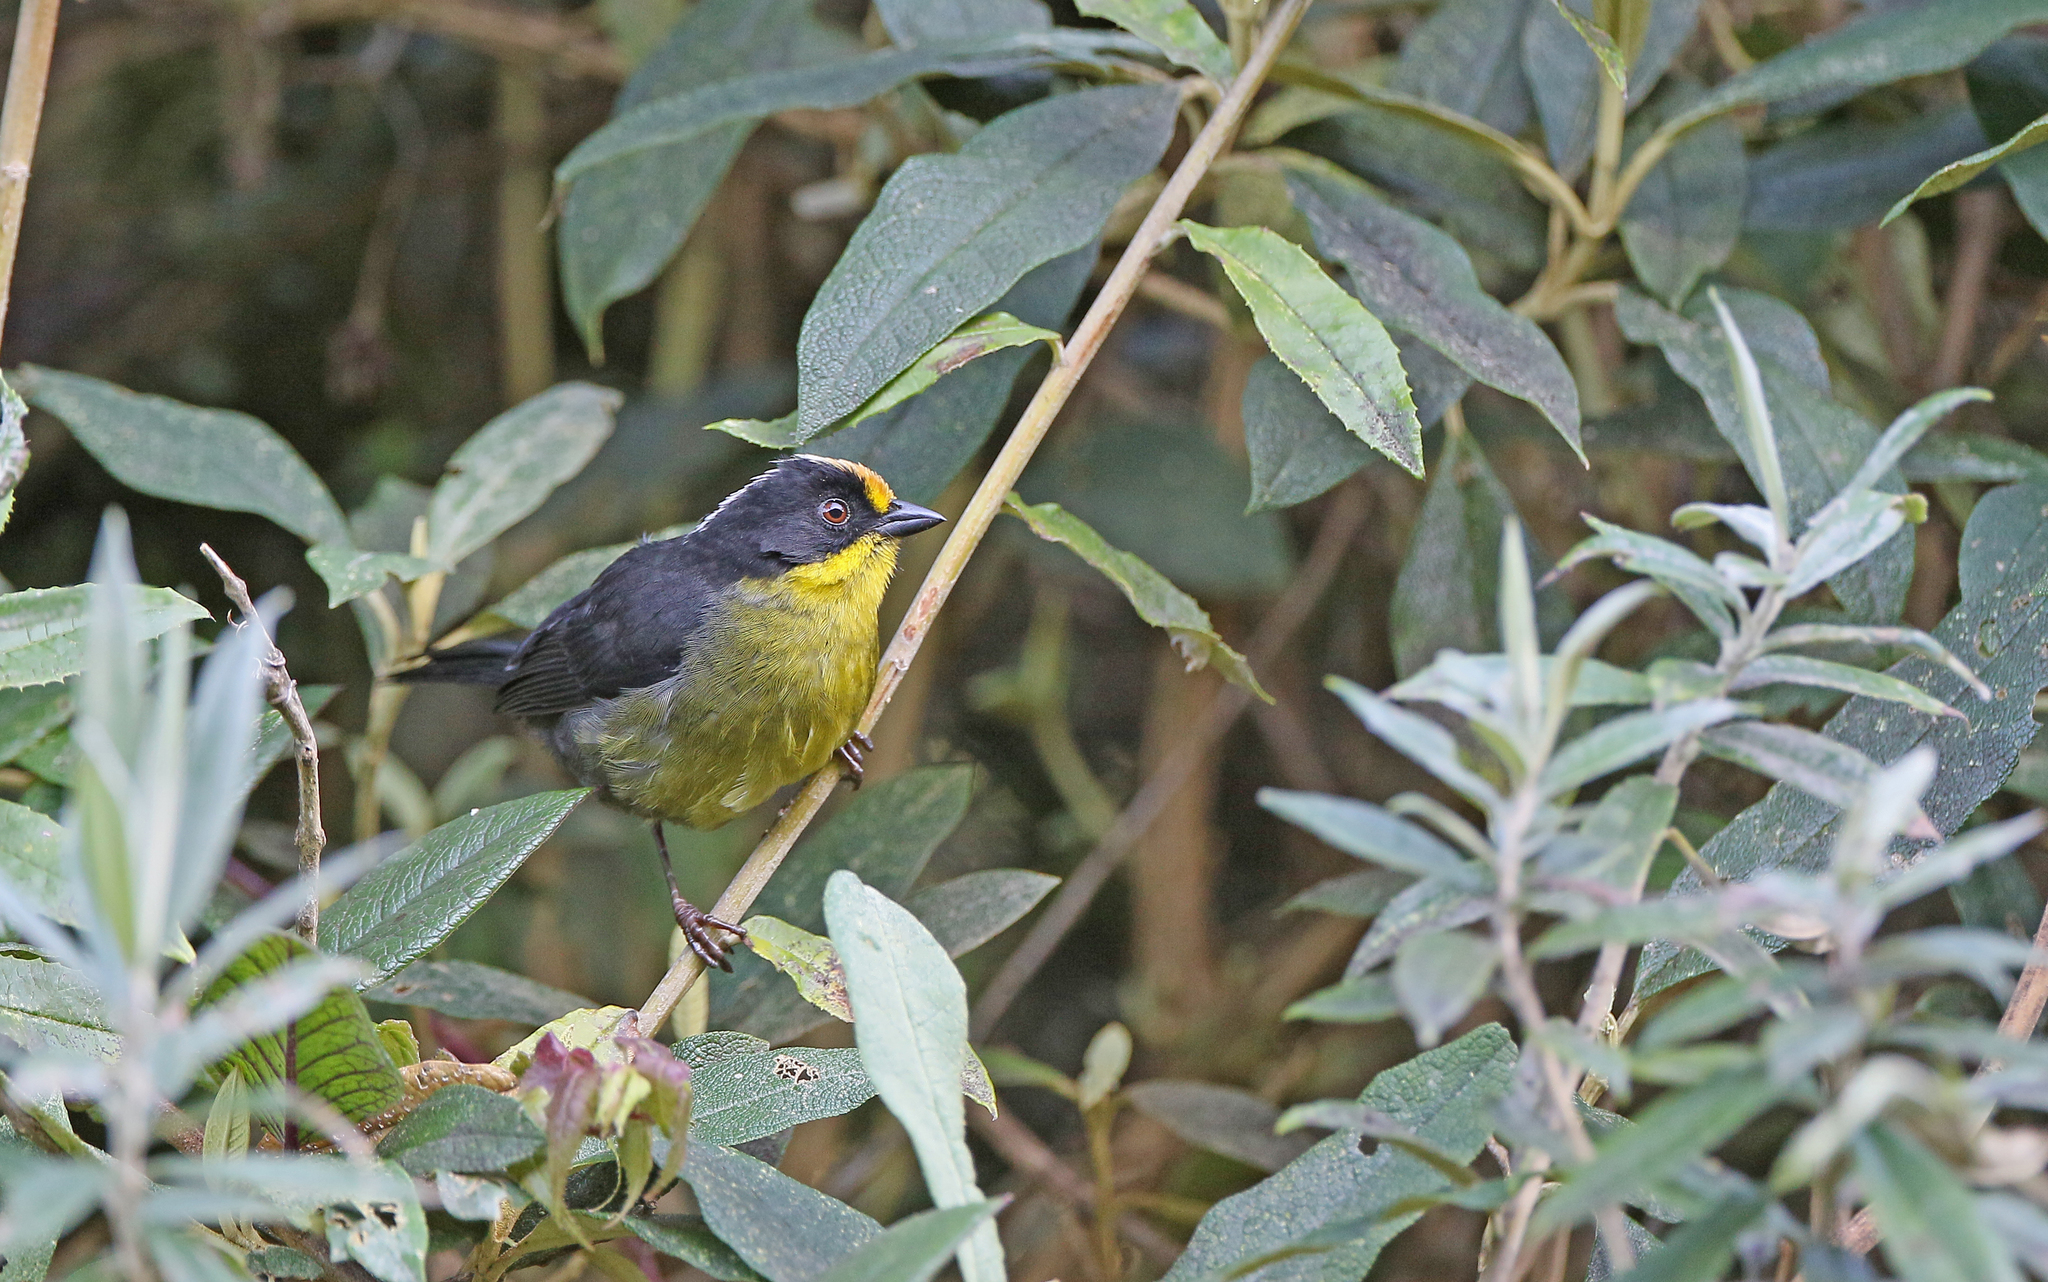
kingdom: Animalia
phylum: Chordata
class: Aves
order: Passeriformes
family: Passerellidae
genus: Atlapetes
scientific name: Atlapetes pallidinucha
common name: Pale-naped brushfinch
